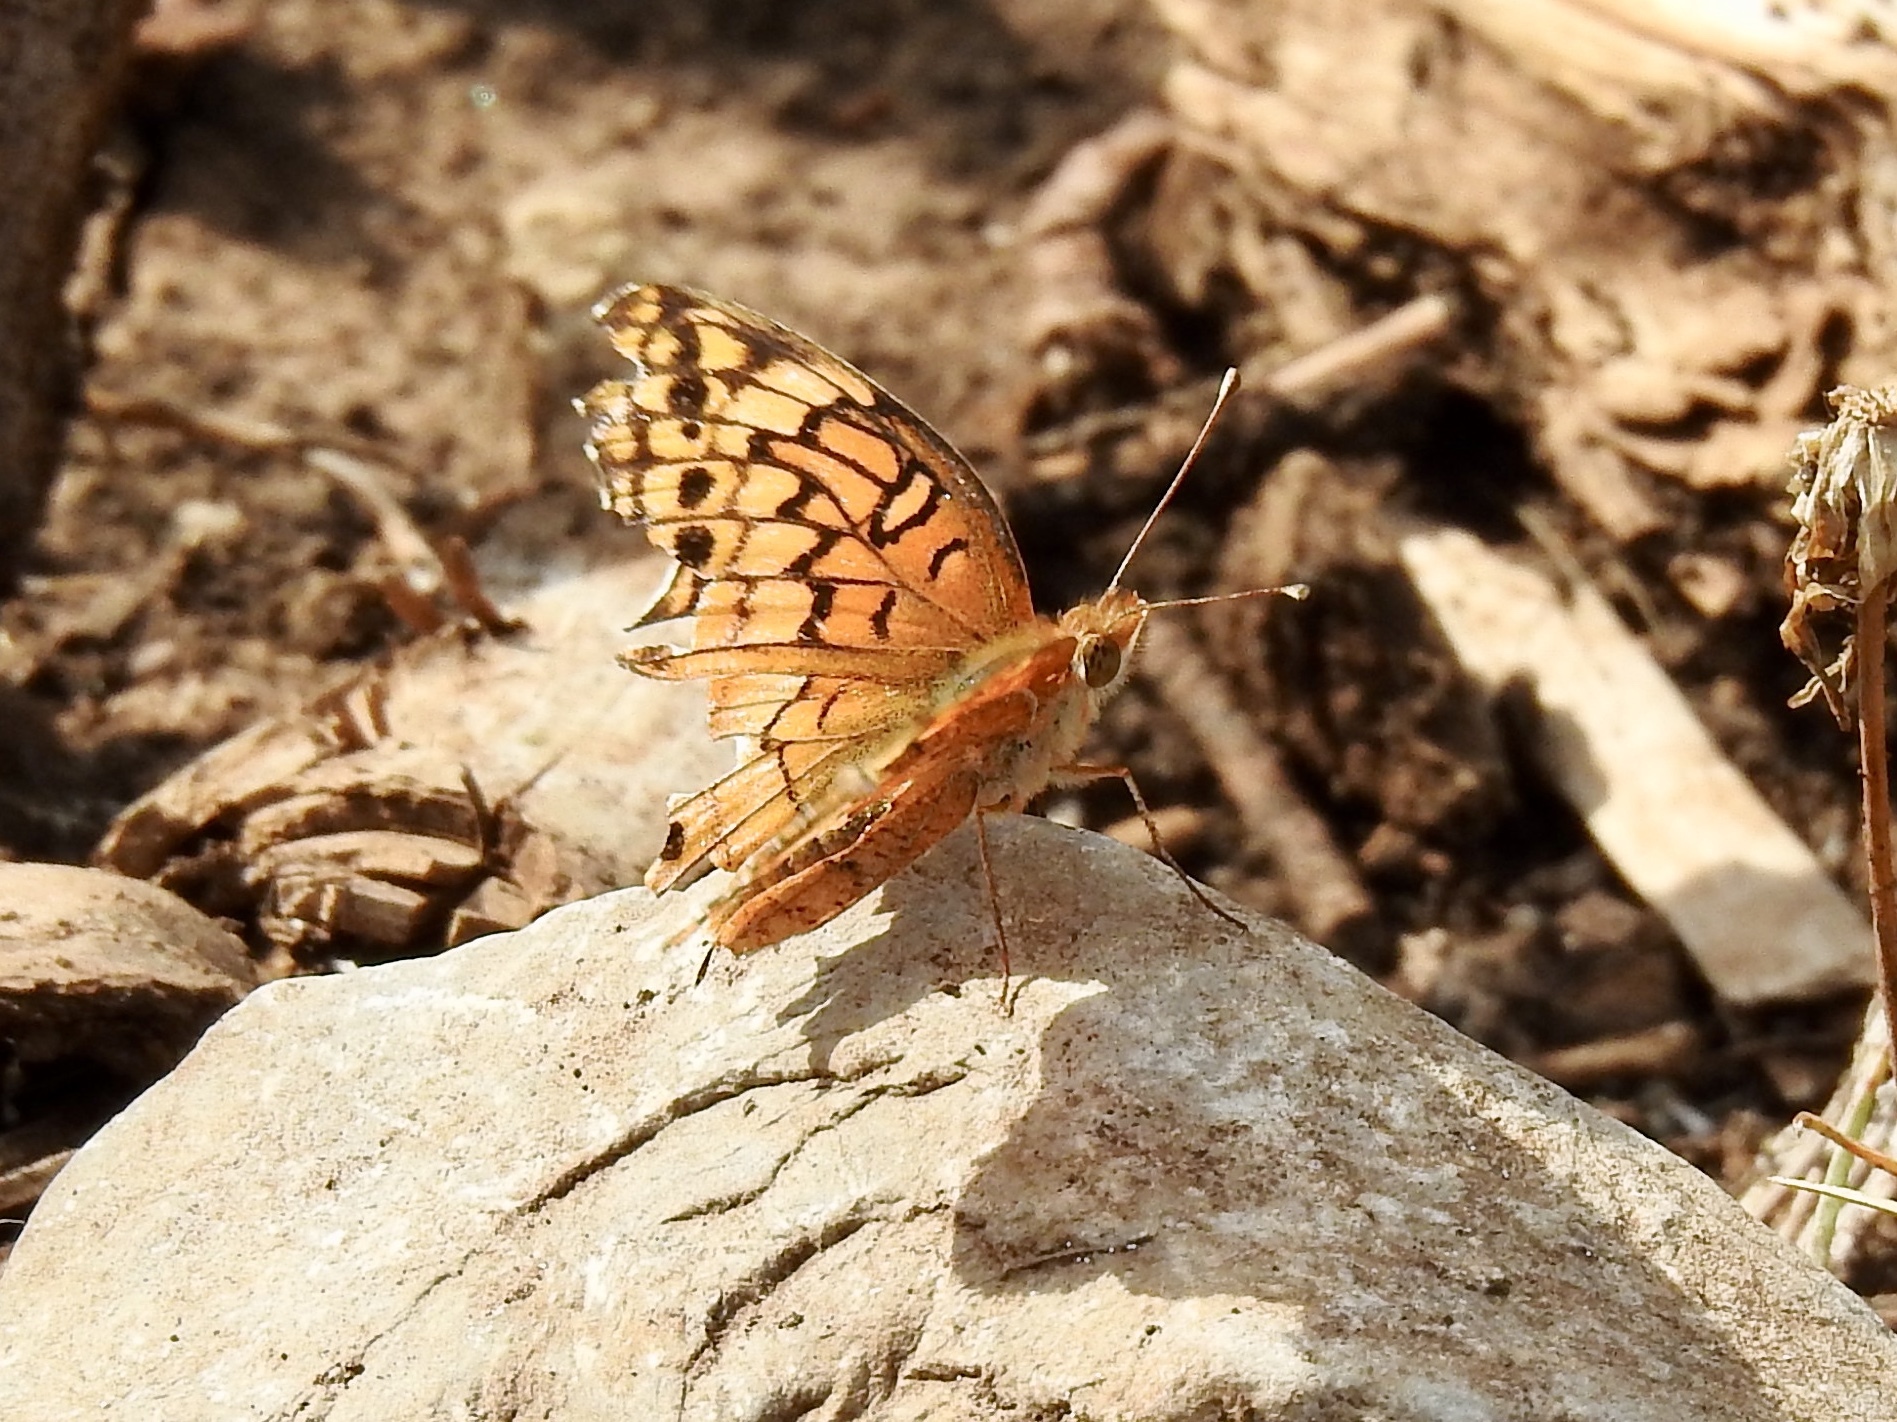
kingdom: Animalia
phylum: Arthropoda
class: Insecta
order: Lepidoptera
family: Nymphalidae
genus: Euptoieta
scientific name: Euptoieta claudia
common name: Variegated fritillary
